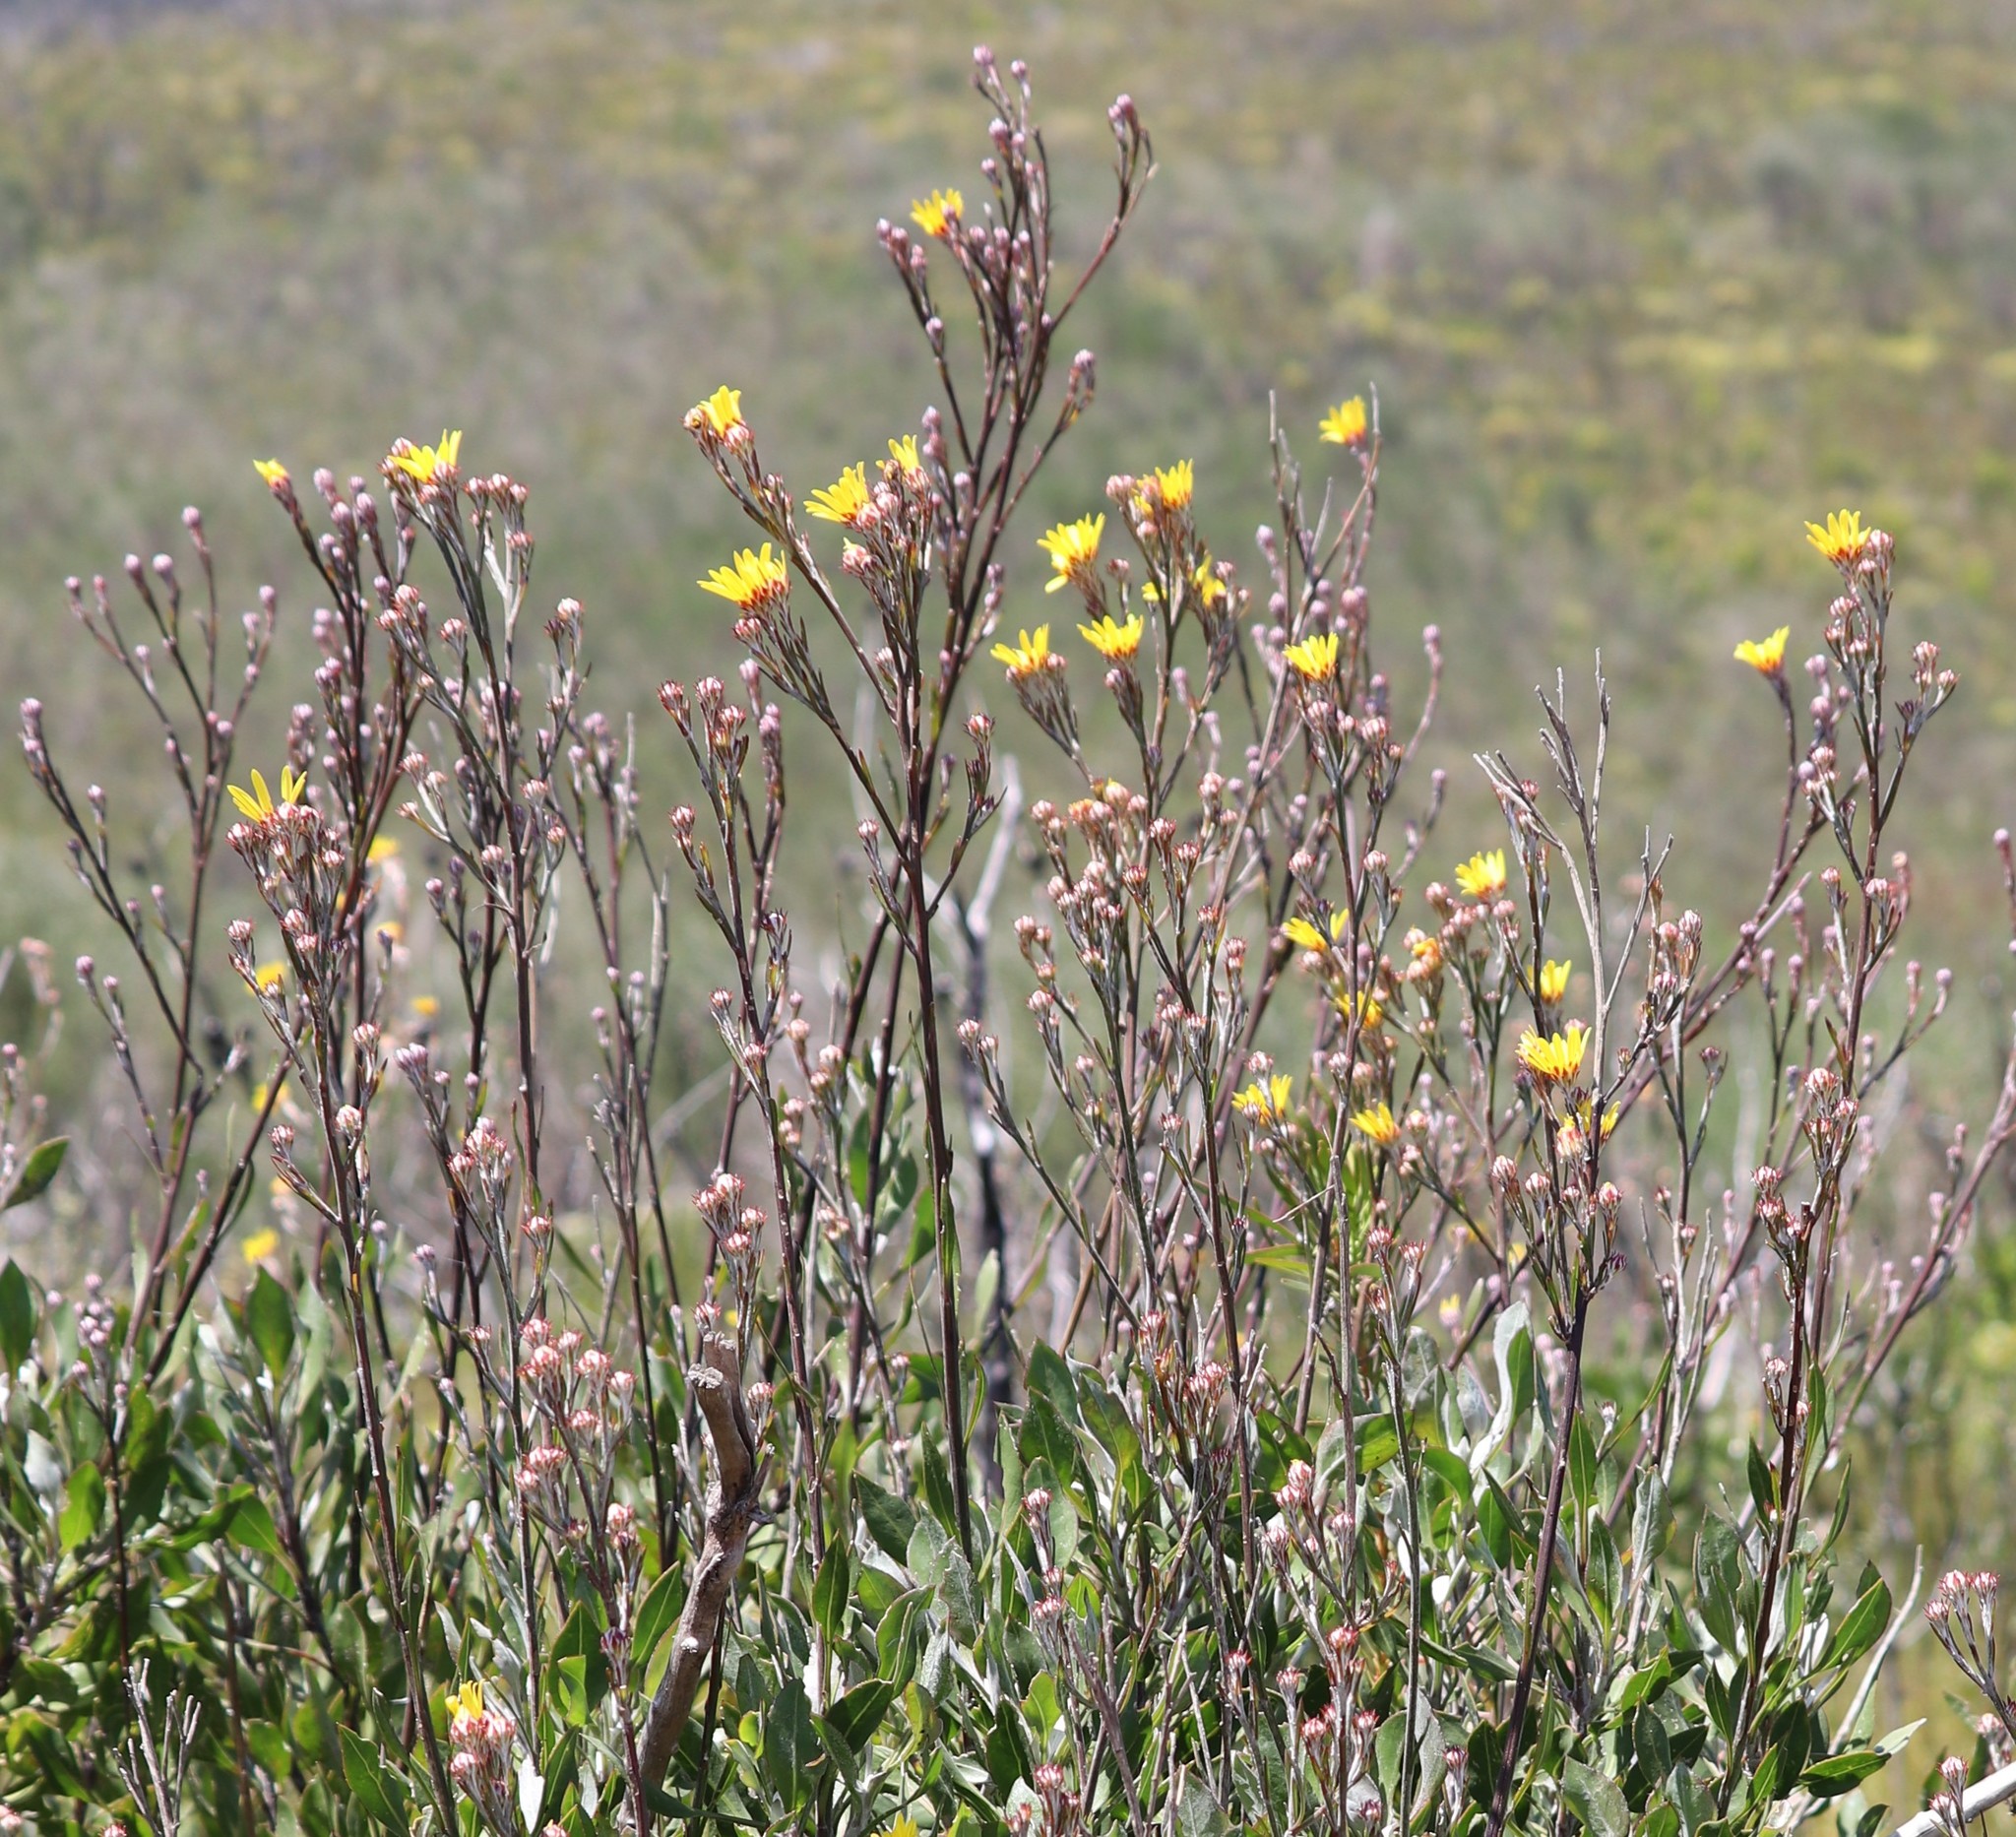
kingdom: Plantae
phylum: Tracheophyta
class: Magnoliopsida
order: Asterales
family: Asteraceae
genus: Osteospermum
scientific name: Osteospermum junceum
